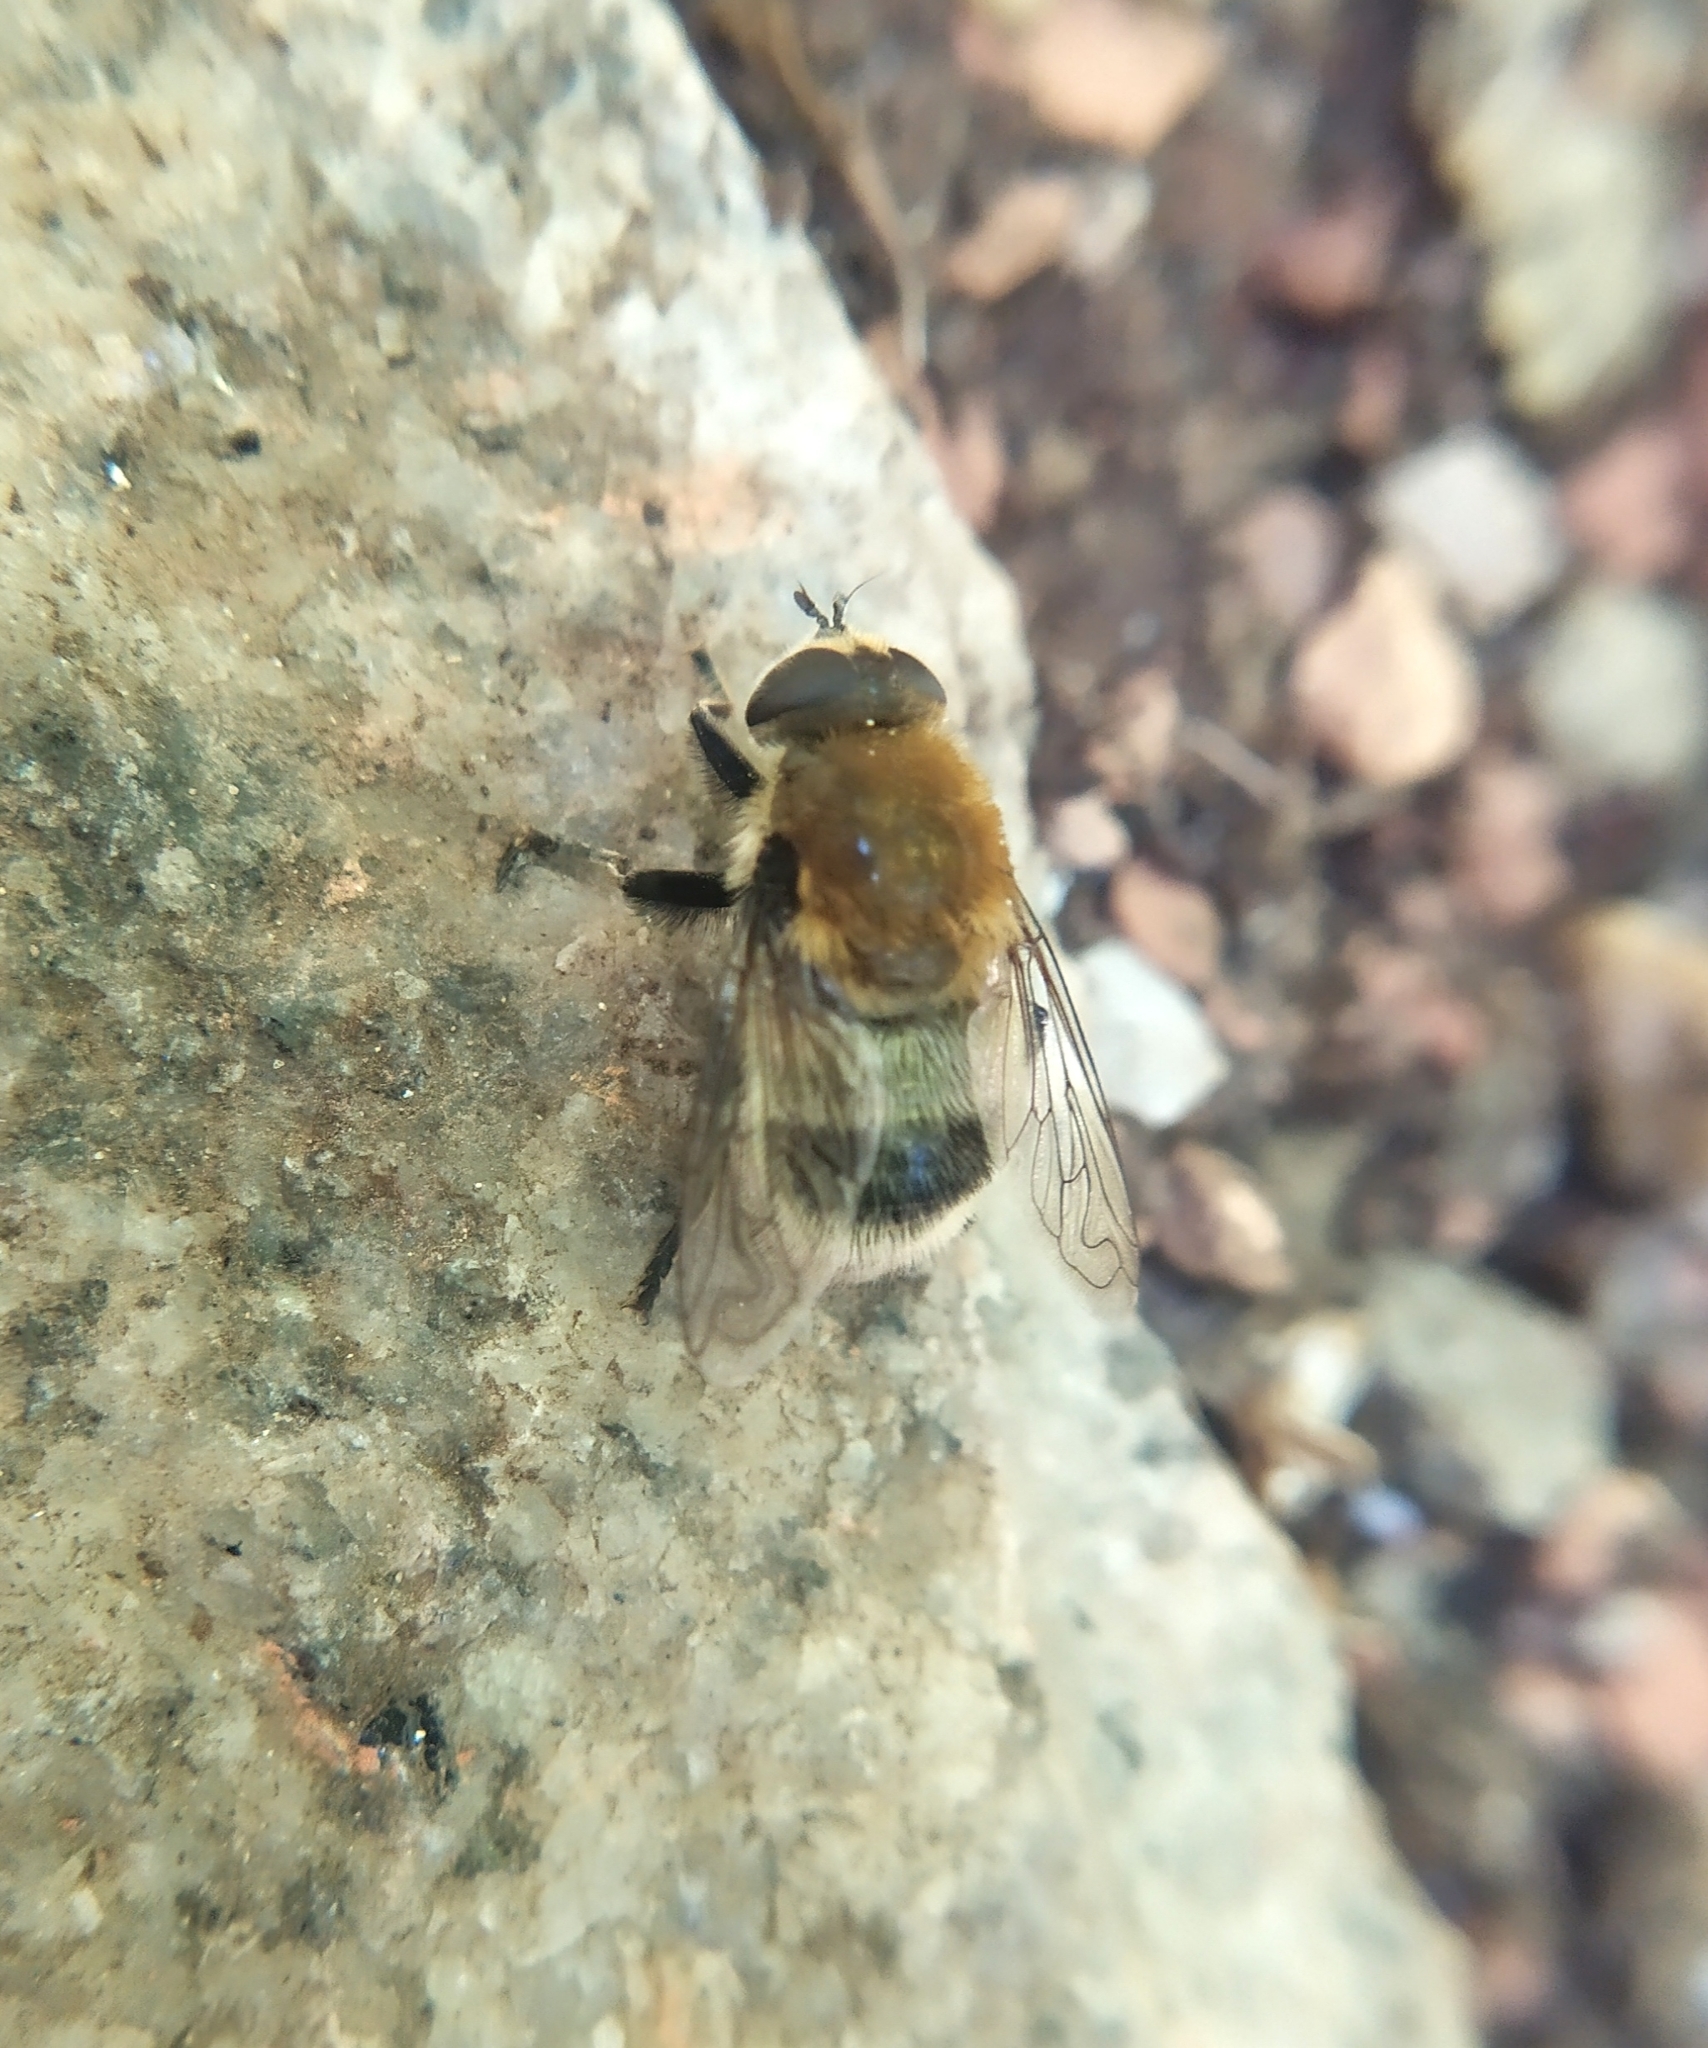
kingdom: Animalia
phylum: Arthropoda
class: Insecta
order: Diptera
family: Syrphidae
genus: Merodon
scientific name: Merodon equestris
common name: Greater bulb-fly
